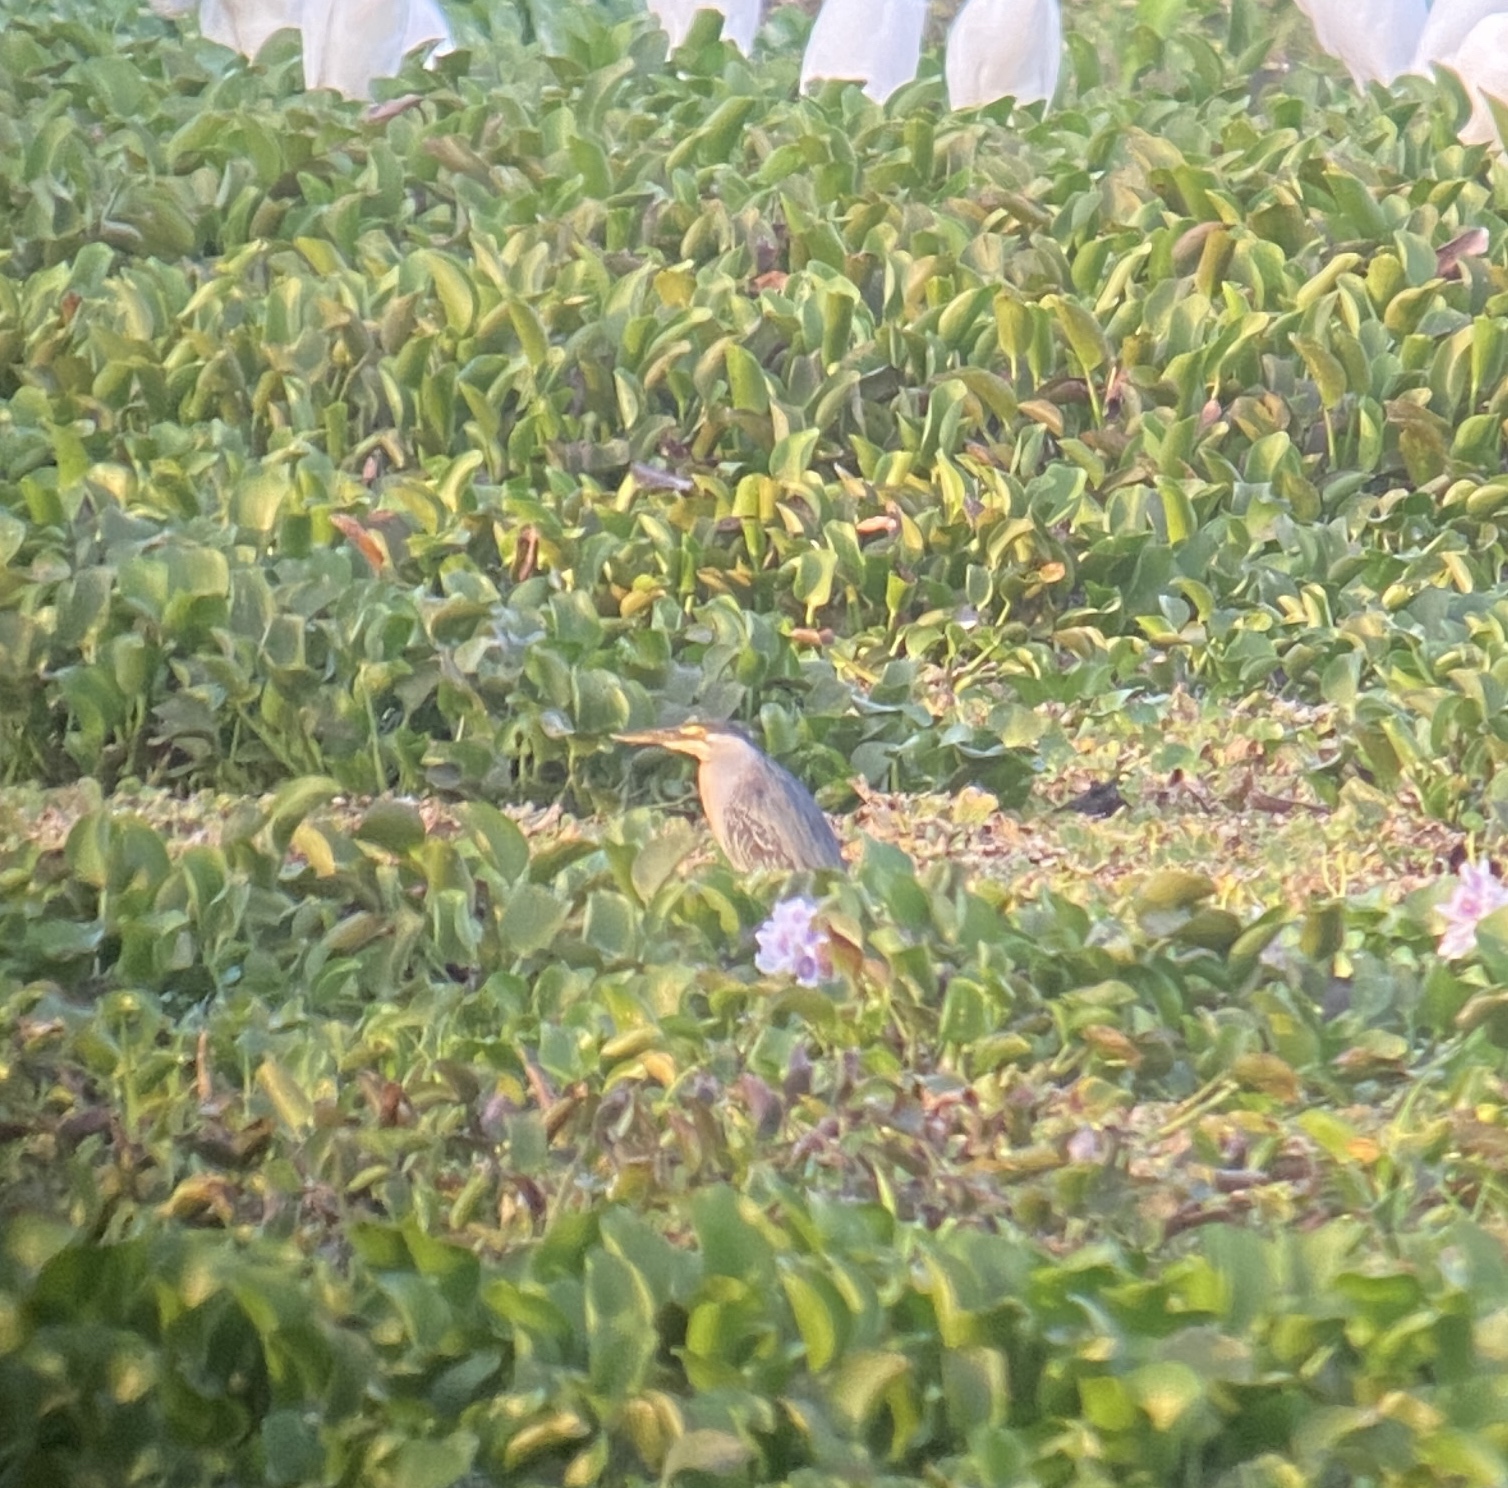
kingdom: Animalia
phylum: Chordata
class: Aves
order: Pelecaniformes
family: Ardeidae
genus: Butorides
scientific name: Butorides striata
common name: Striated heron
